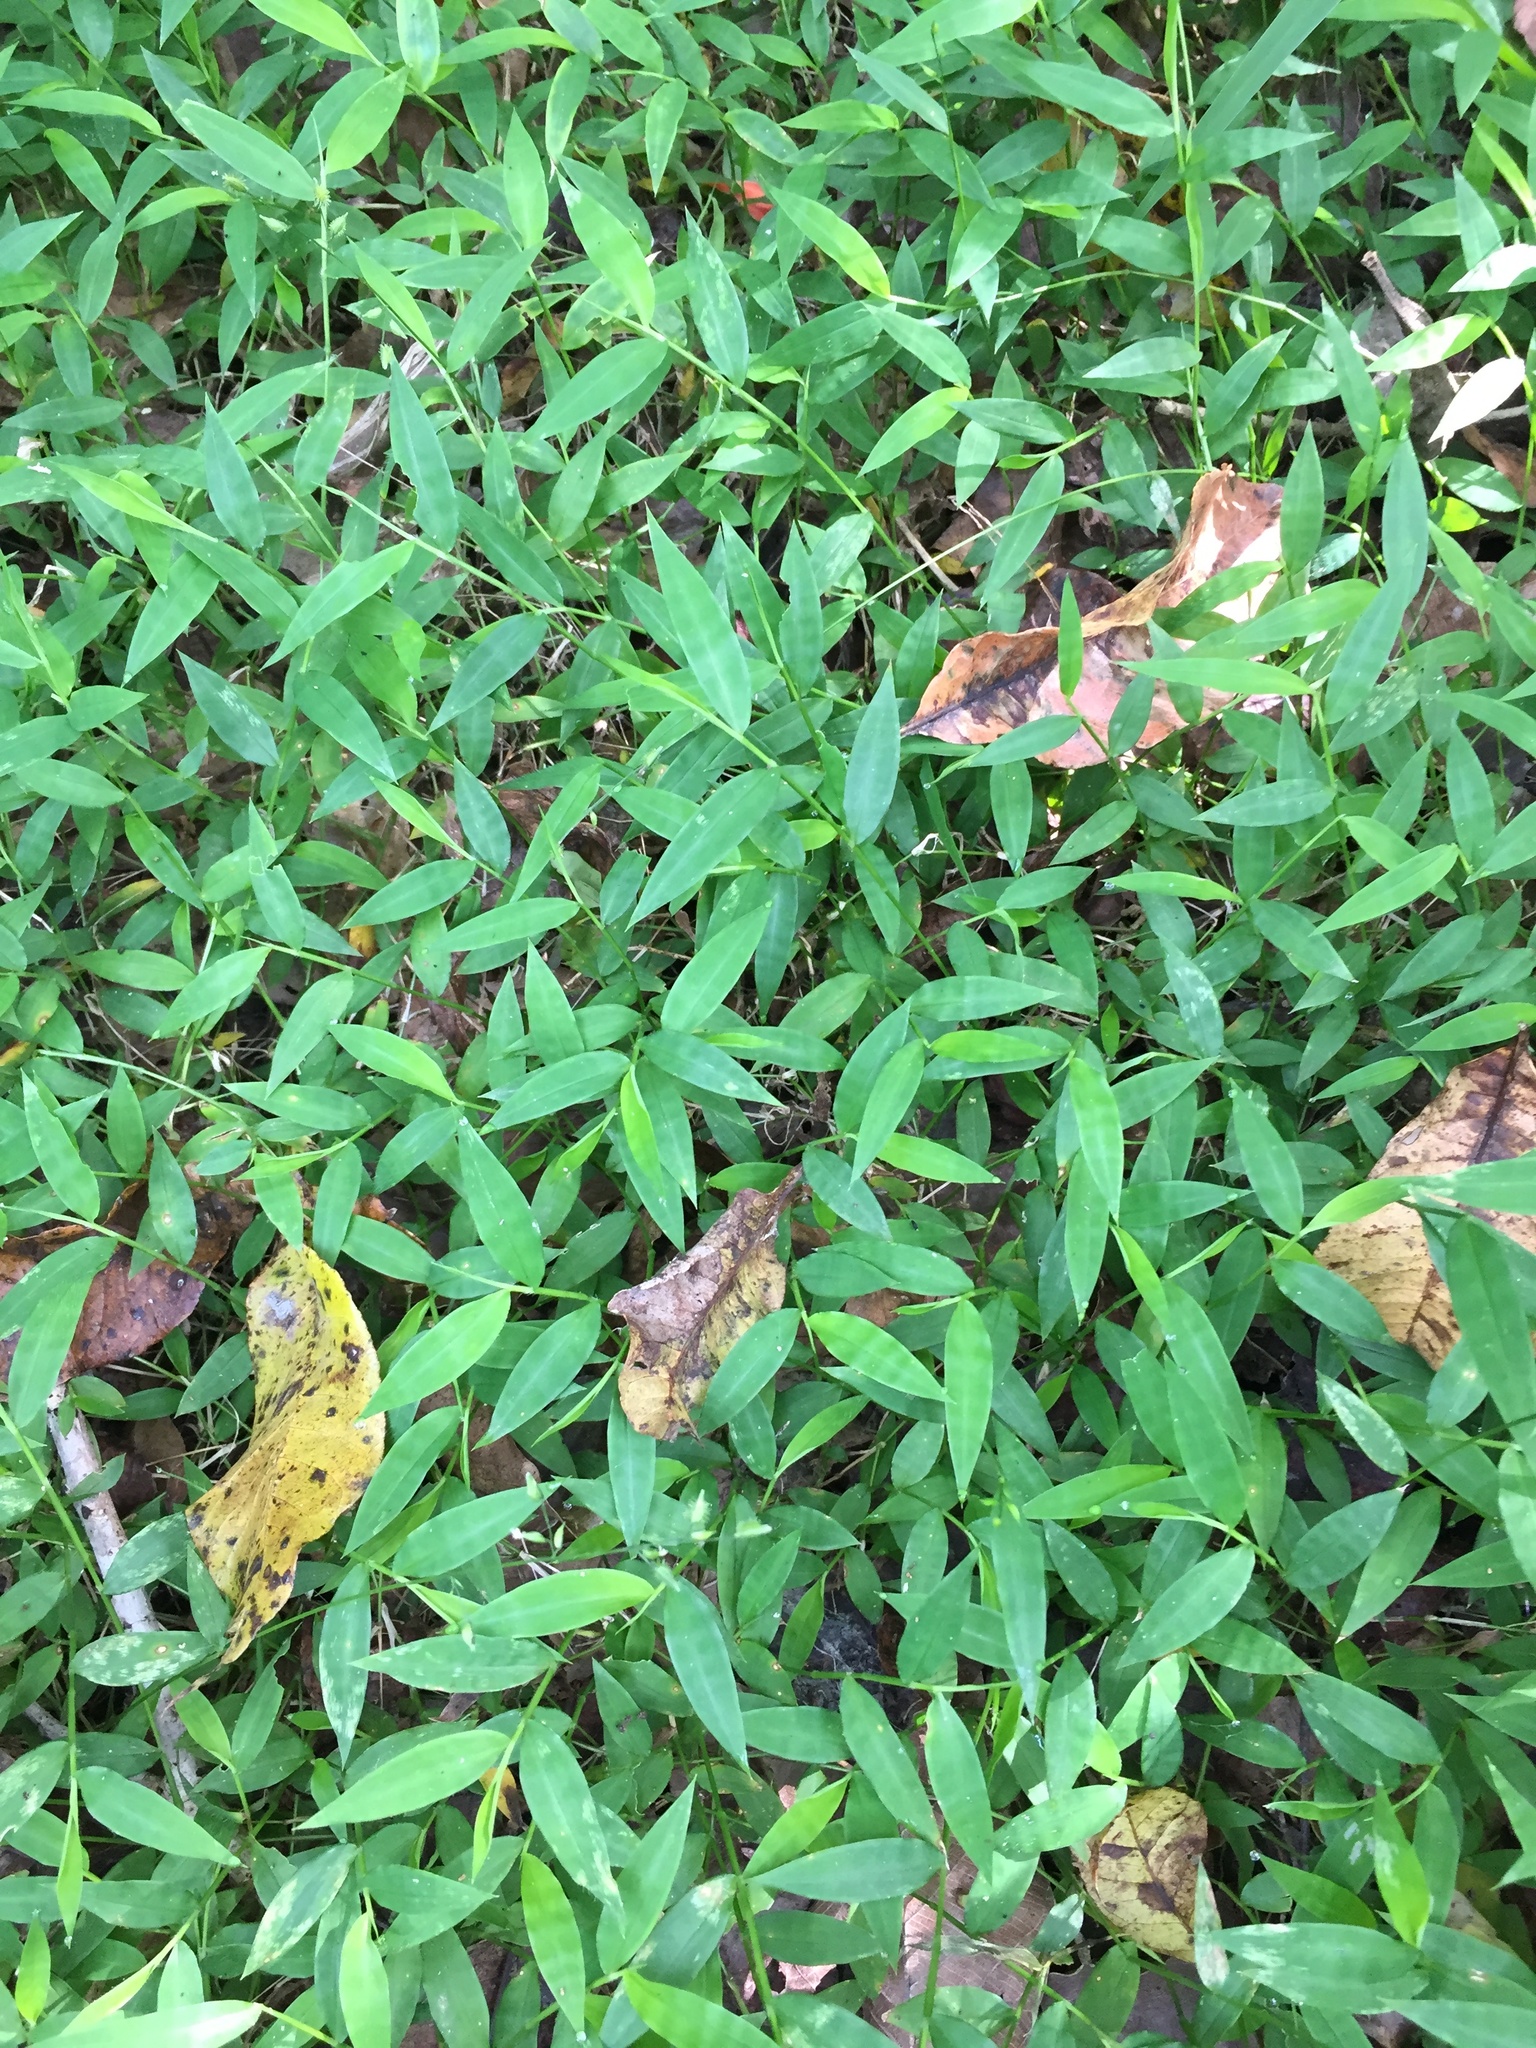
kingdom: Plantae
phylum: Tracheophyta
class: Liliopsida
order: Poales
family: Poaceae
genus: Oplismenus
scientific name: Oplismenus hirtellus
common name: Basketgrass
